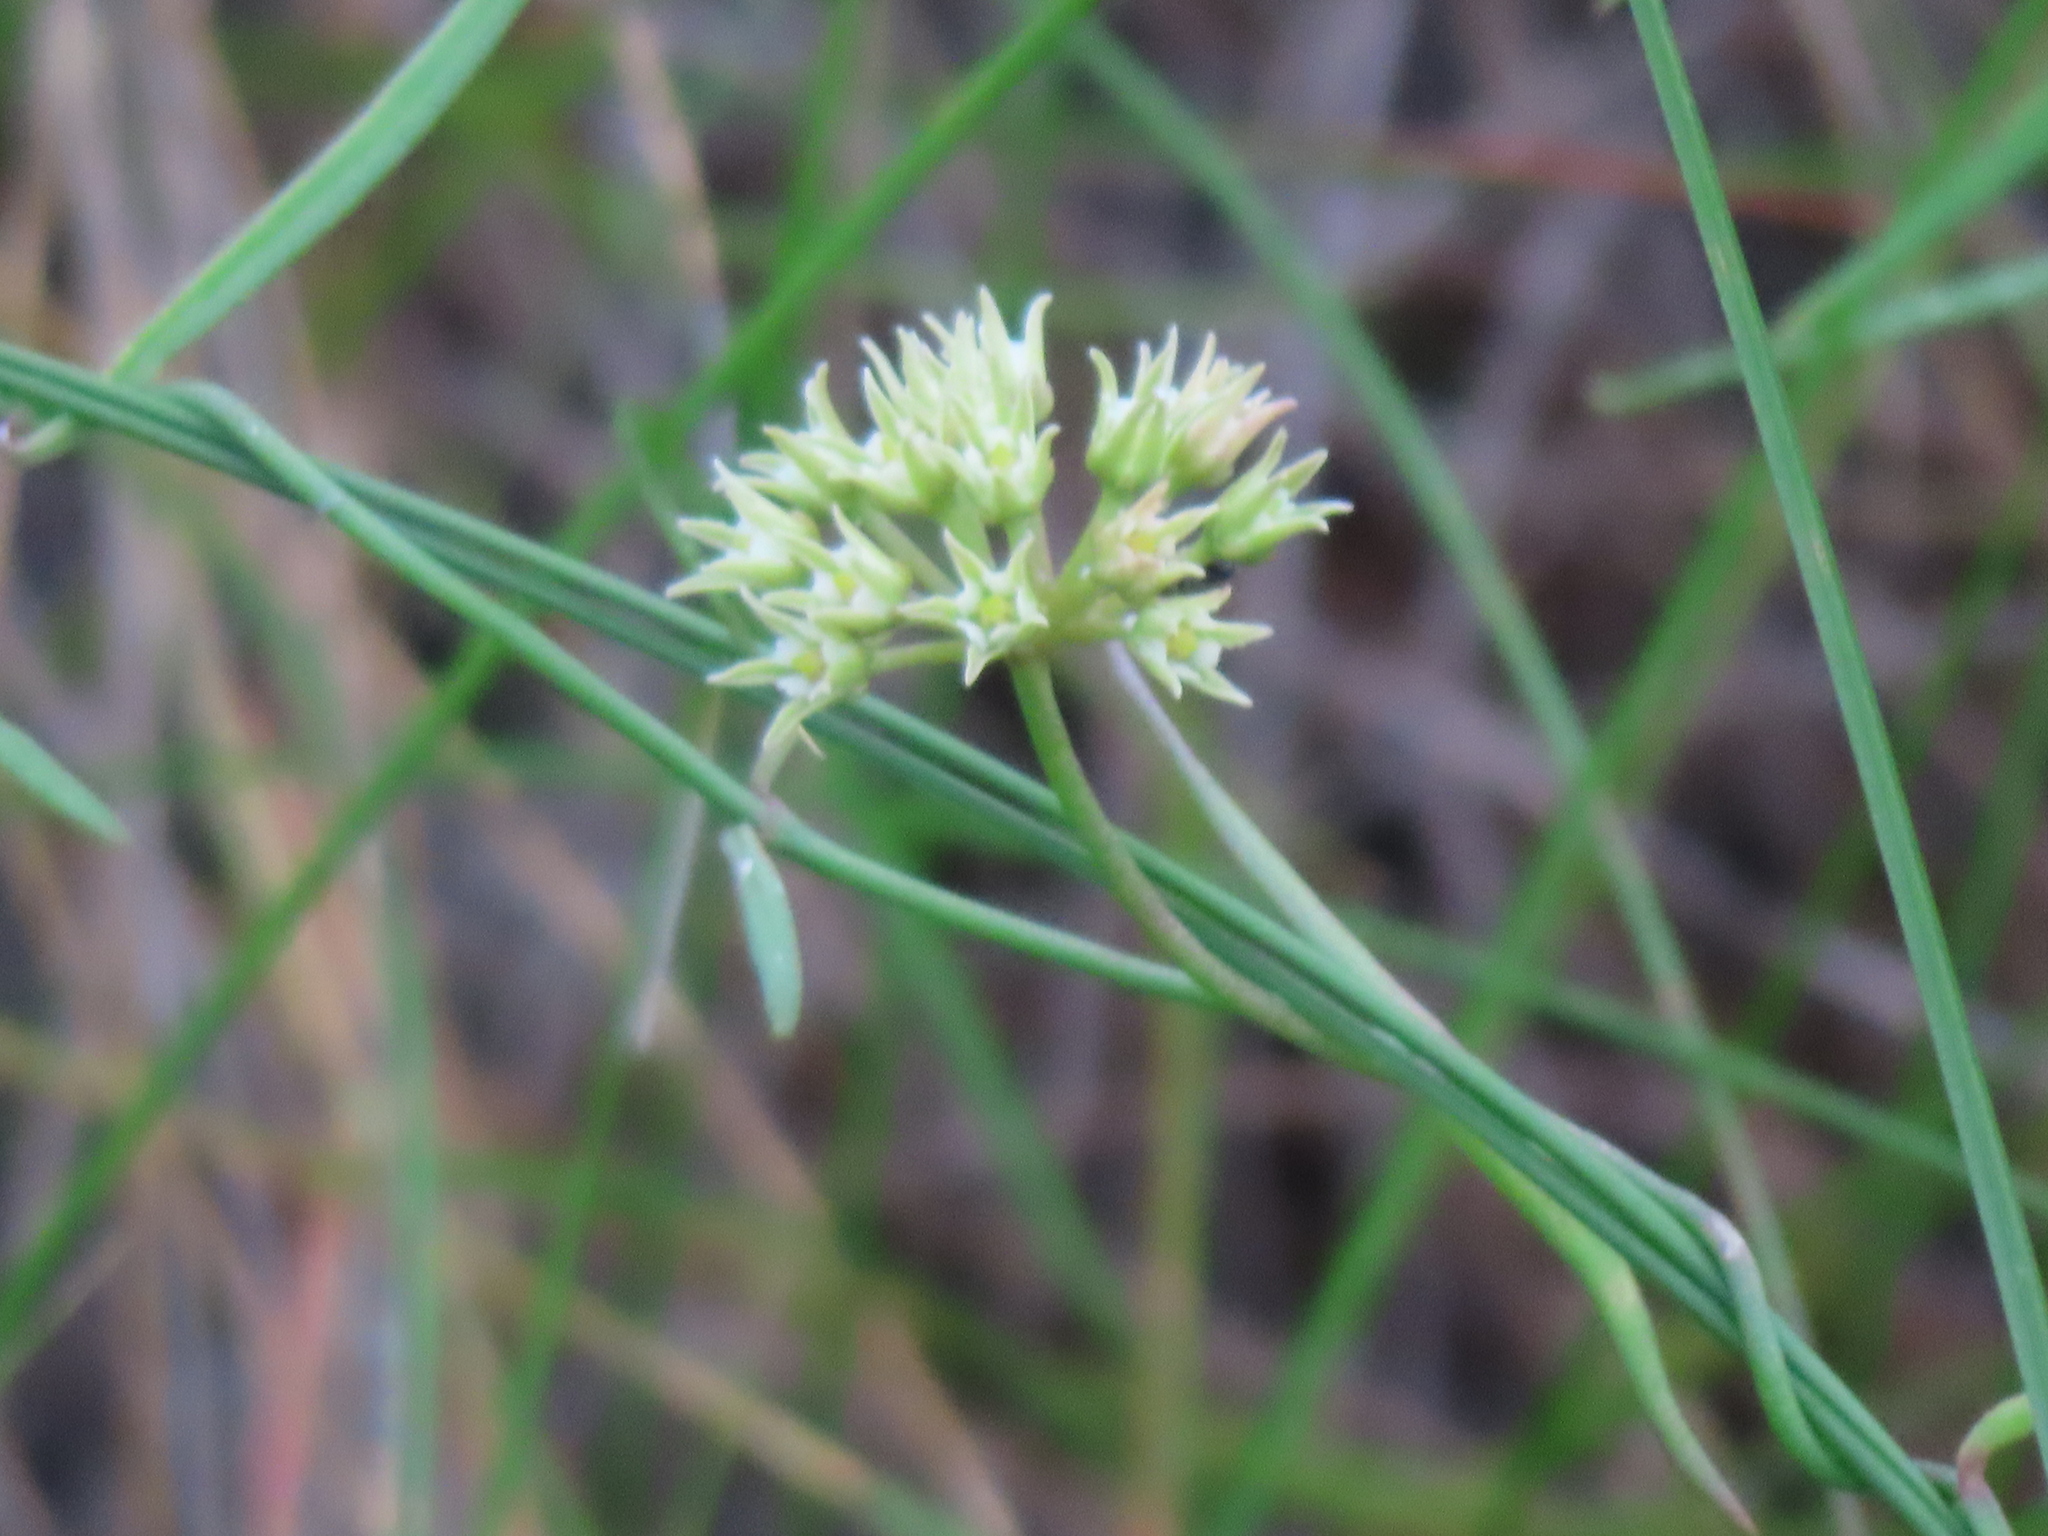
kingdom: Plantae
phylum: Tracheophyta
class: Magnoliopsida
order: Gentianales
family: Apocynaceae
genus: Pattalias
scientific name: Pattalias
